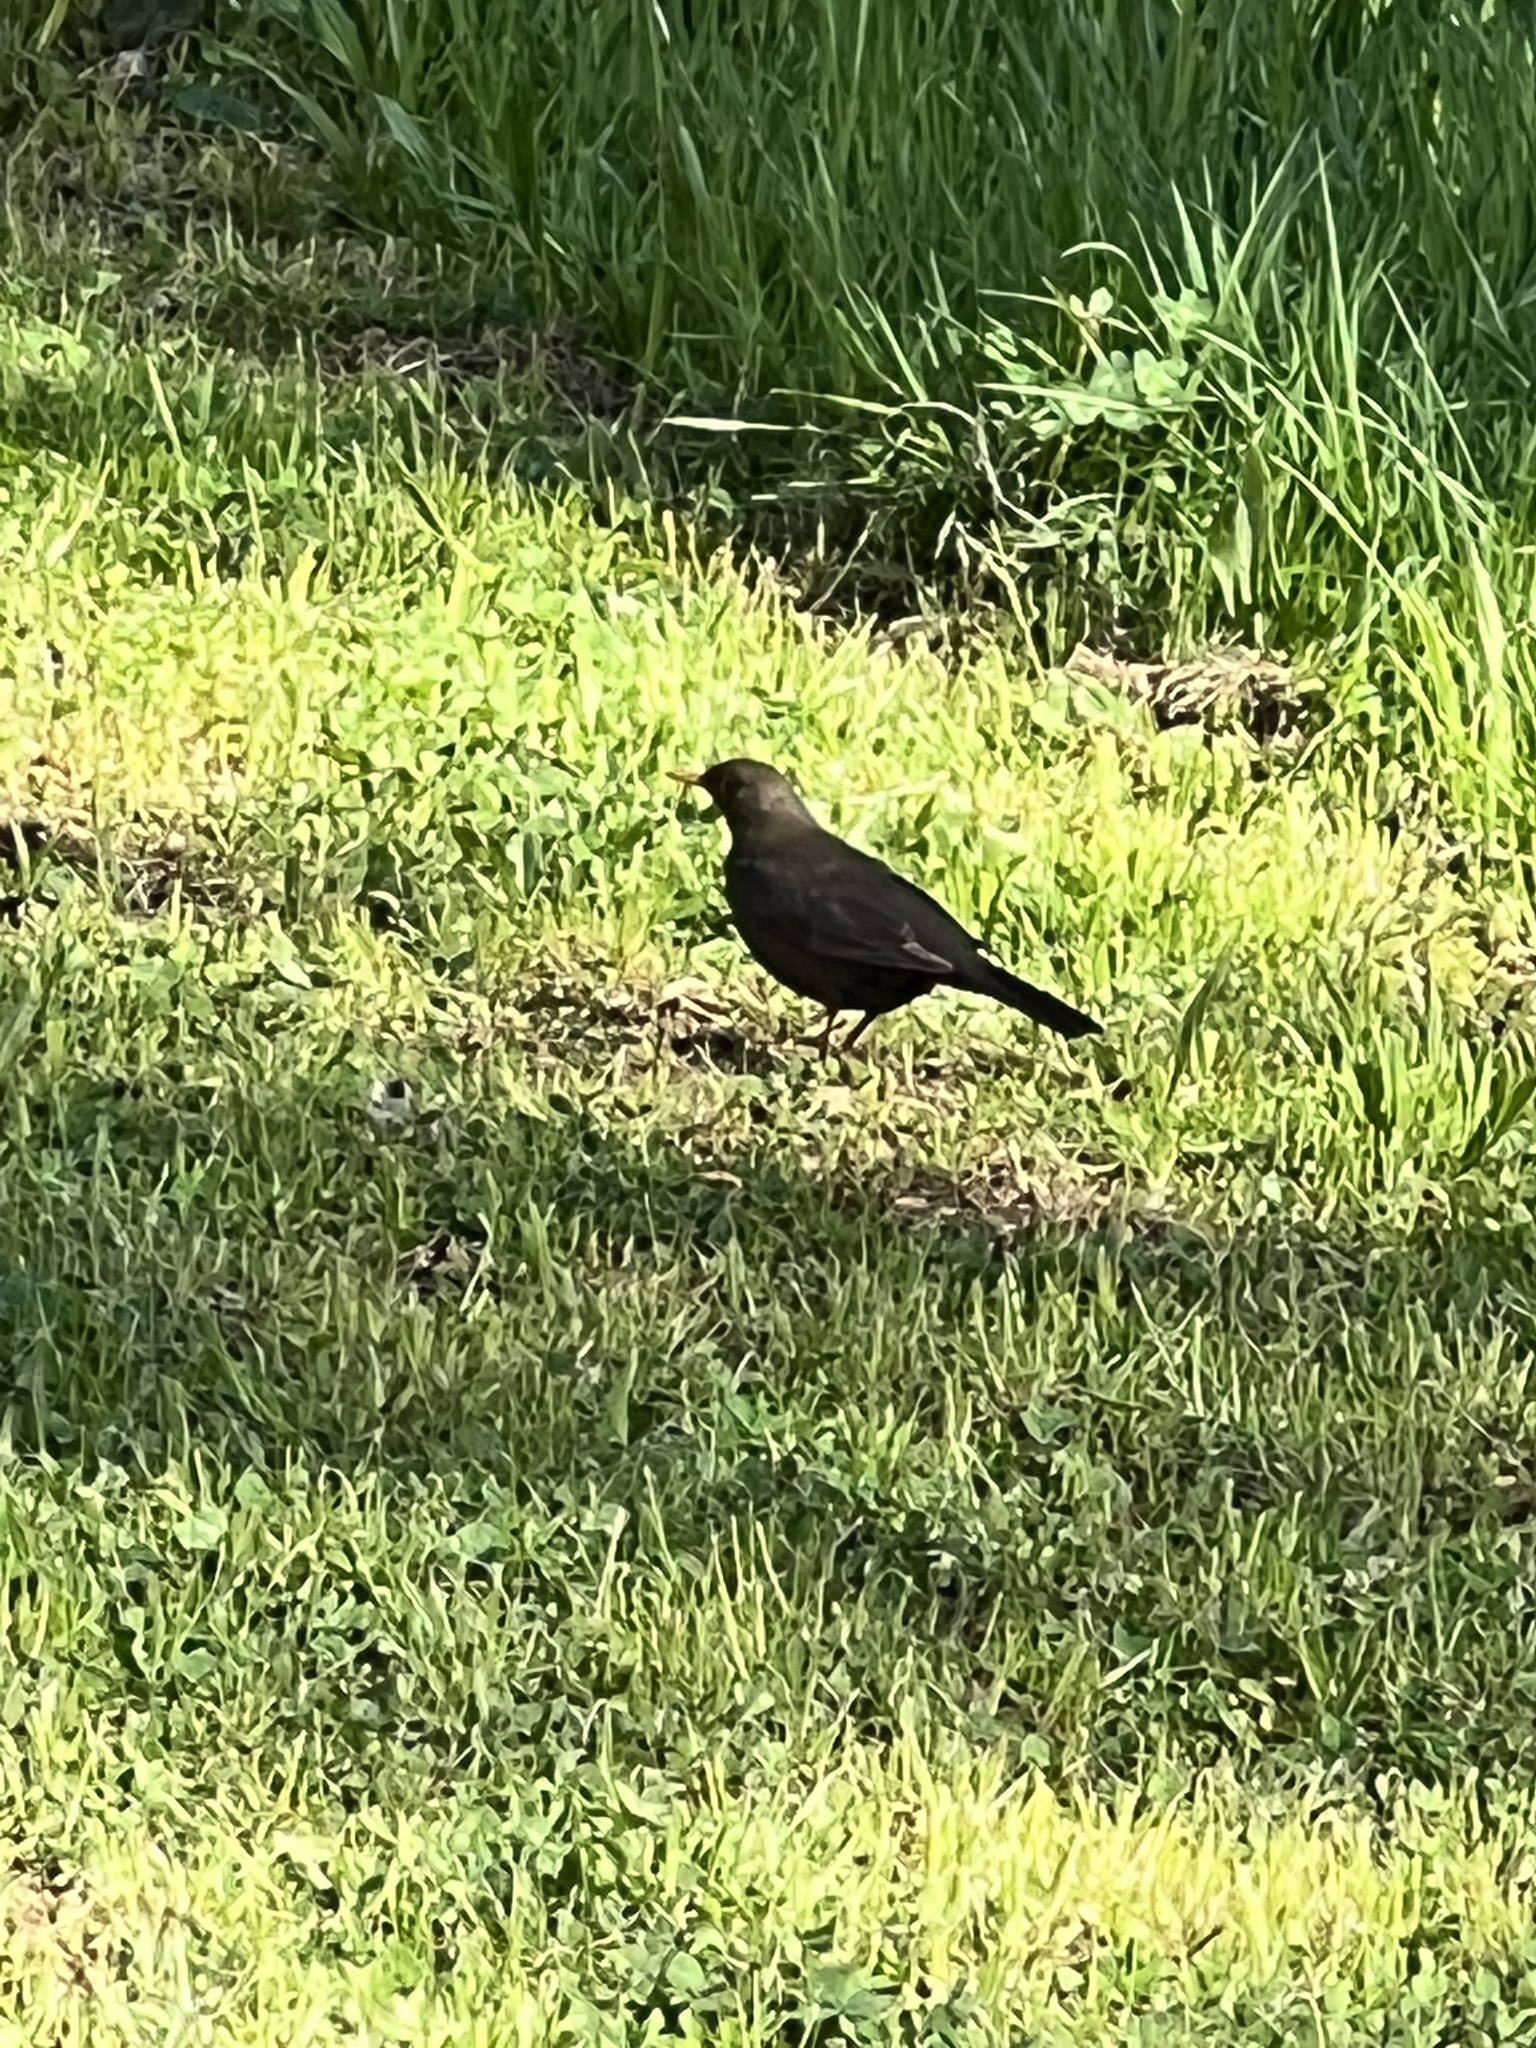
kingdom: Animalia
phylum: Chordata
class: Aves
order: Passeriformes
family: Turdidae
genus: Turdus
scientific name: Turdus merula
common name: Common blackbird
